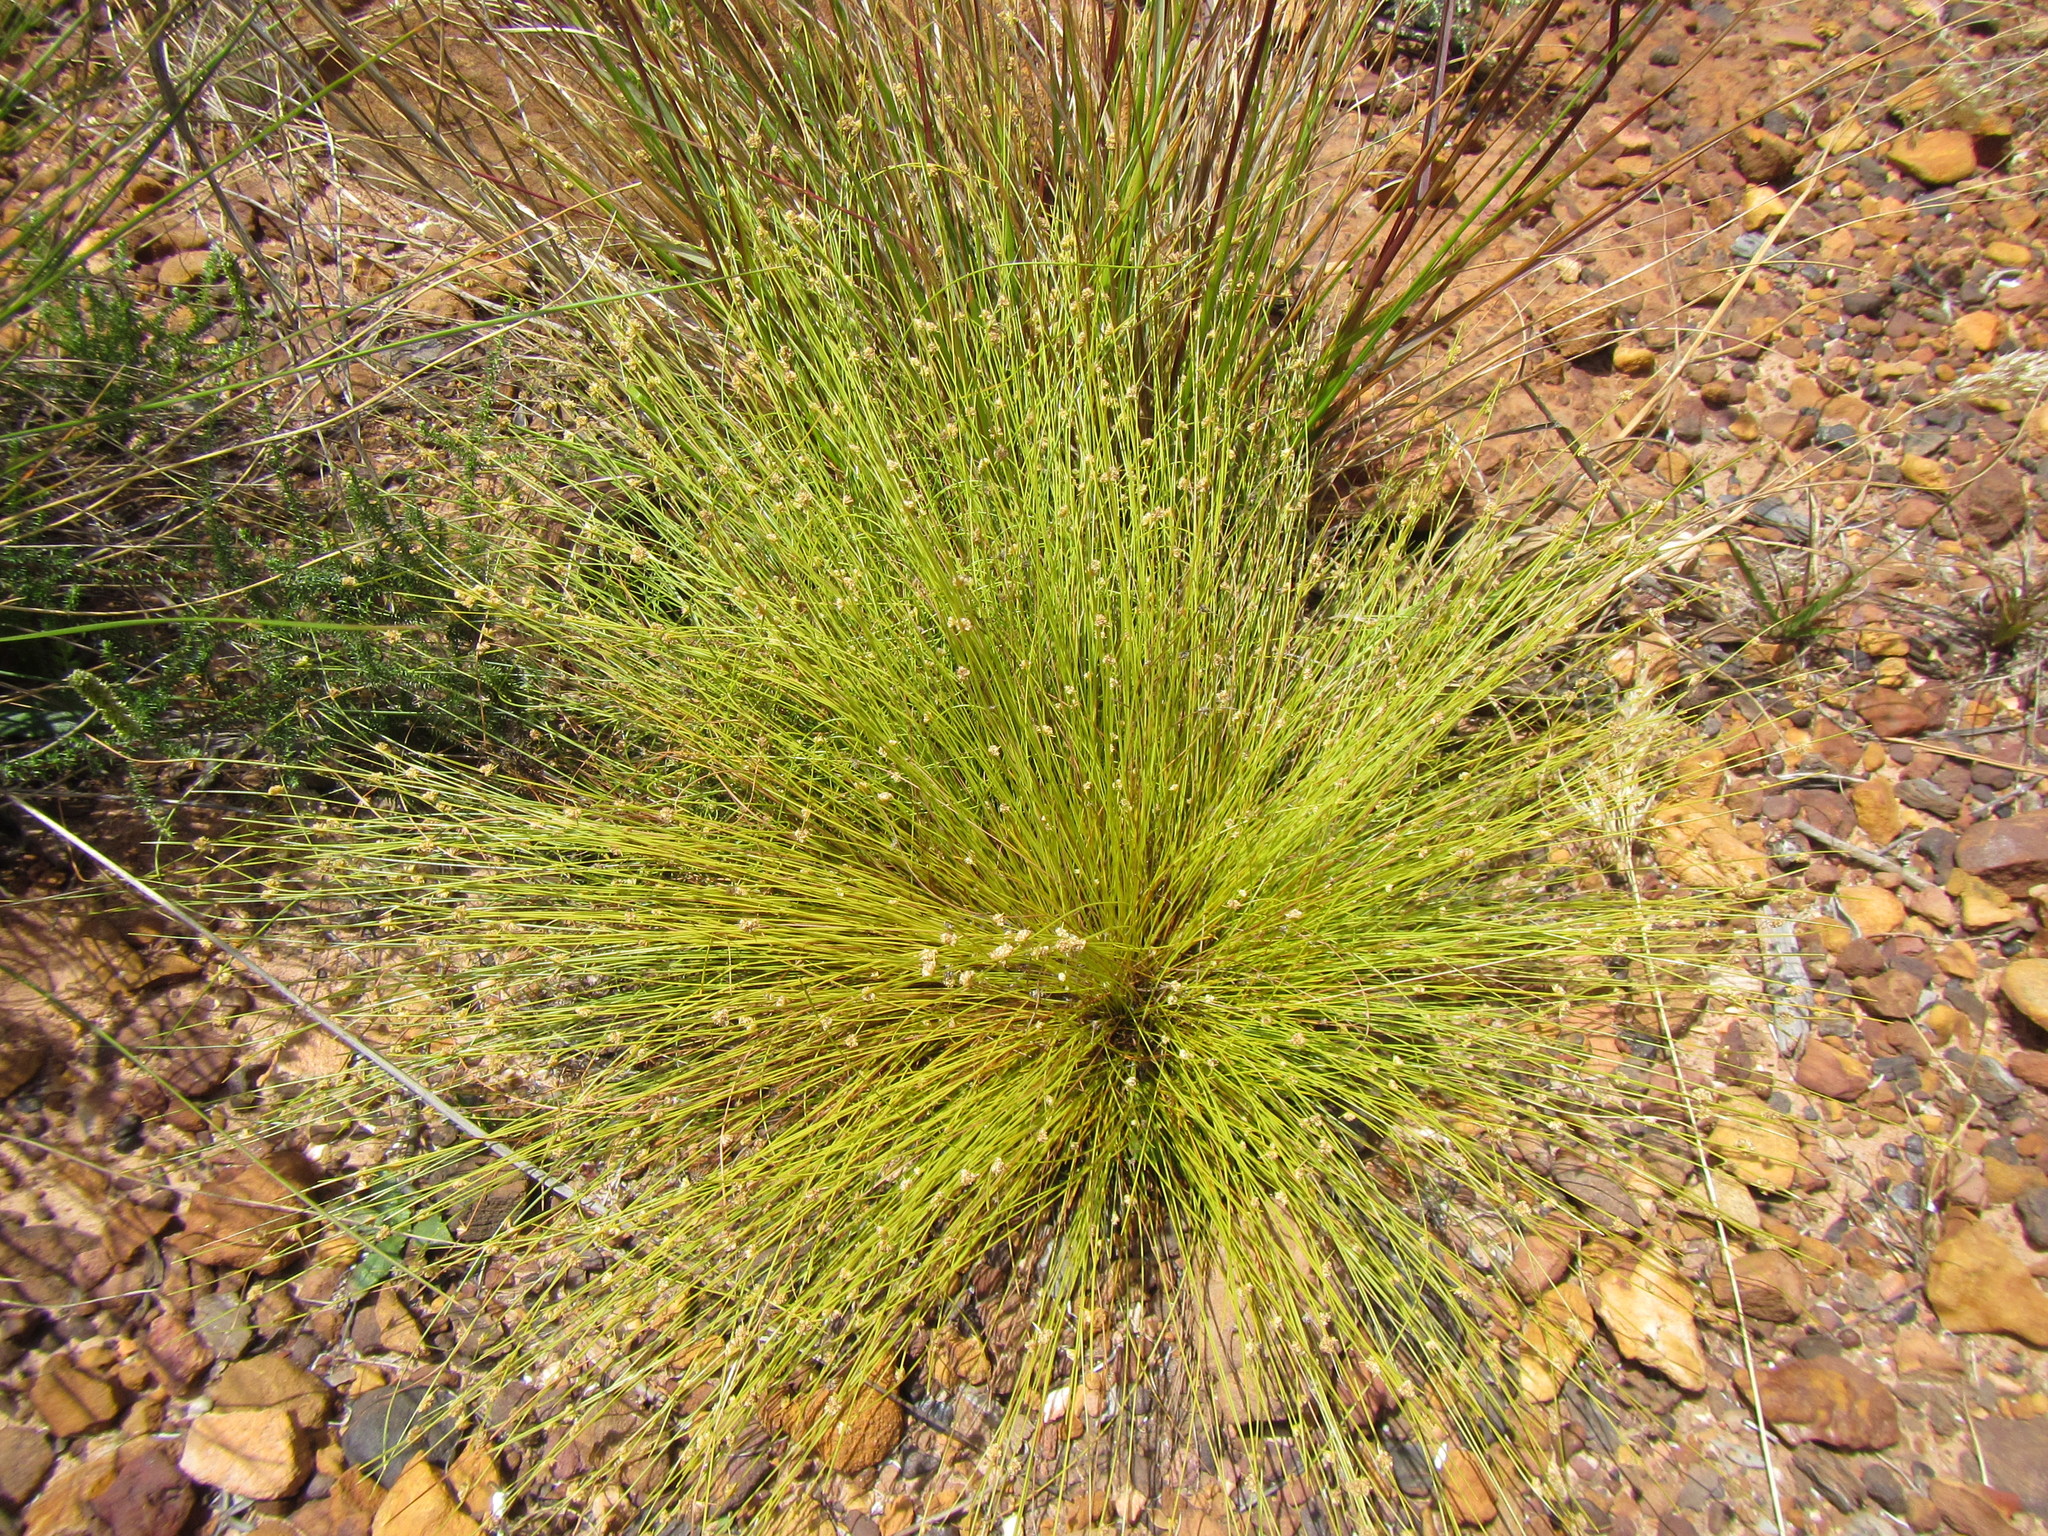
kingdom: Plantae
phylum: Tracheophyta
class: Liliopsida
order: Poales
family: Cyperaceae
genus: Ficinia
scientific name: Ficinia minutiflora
